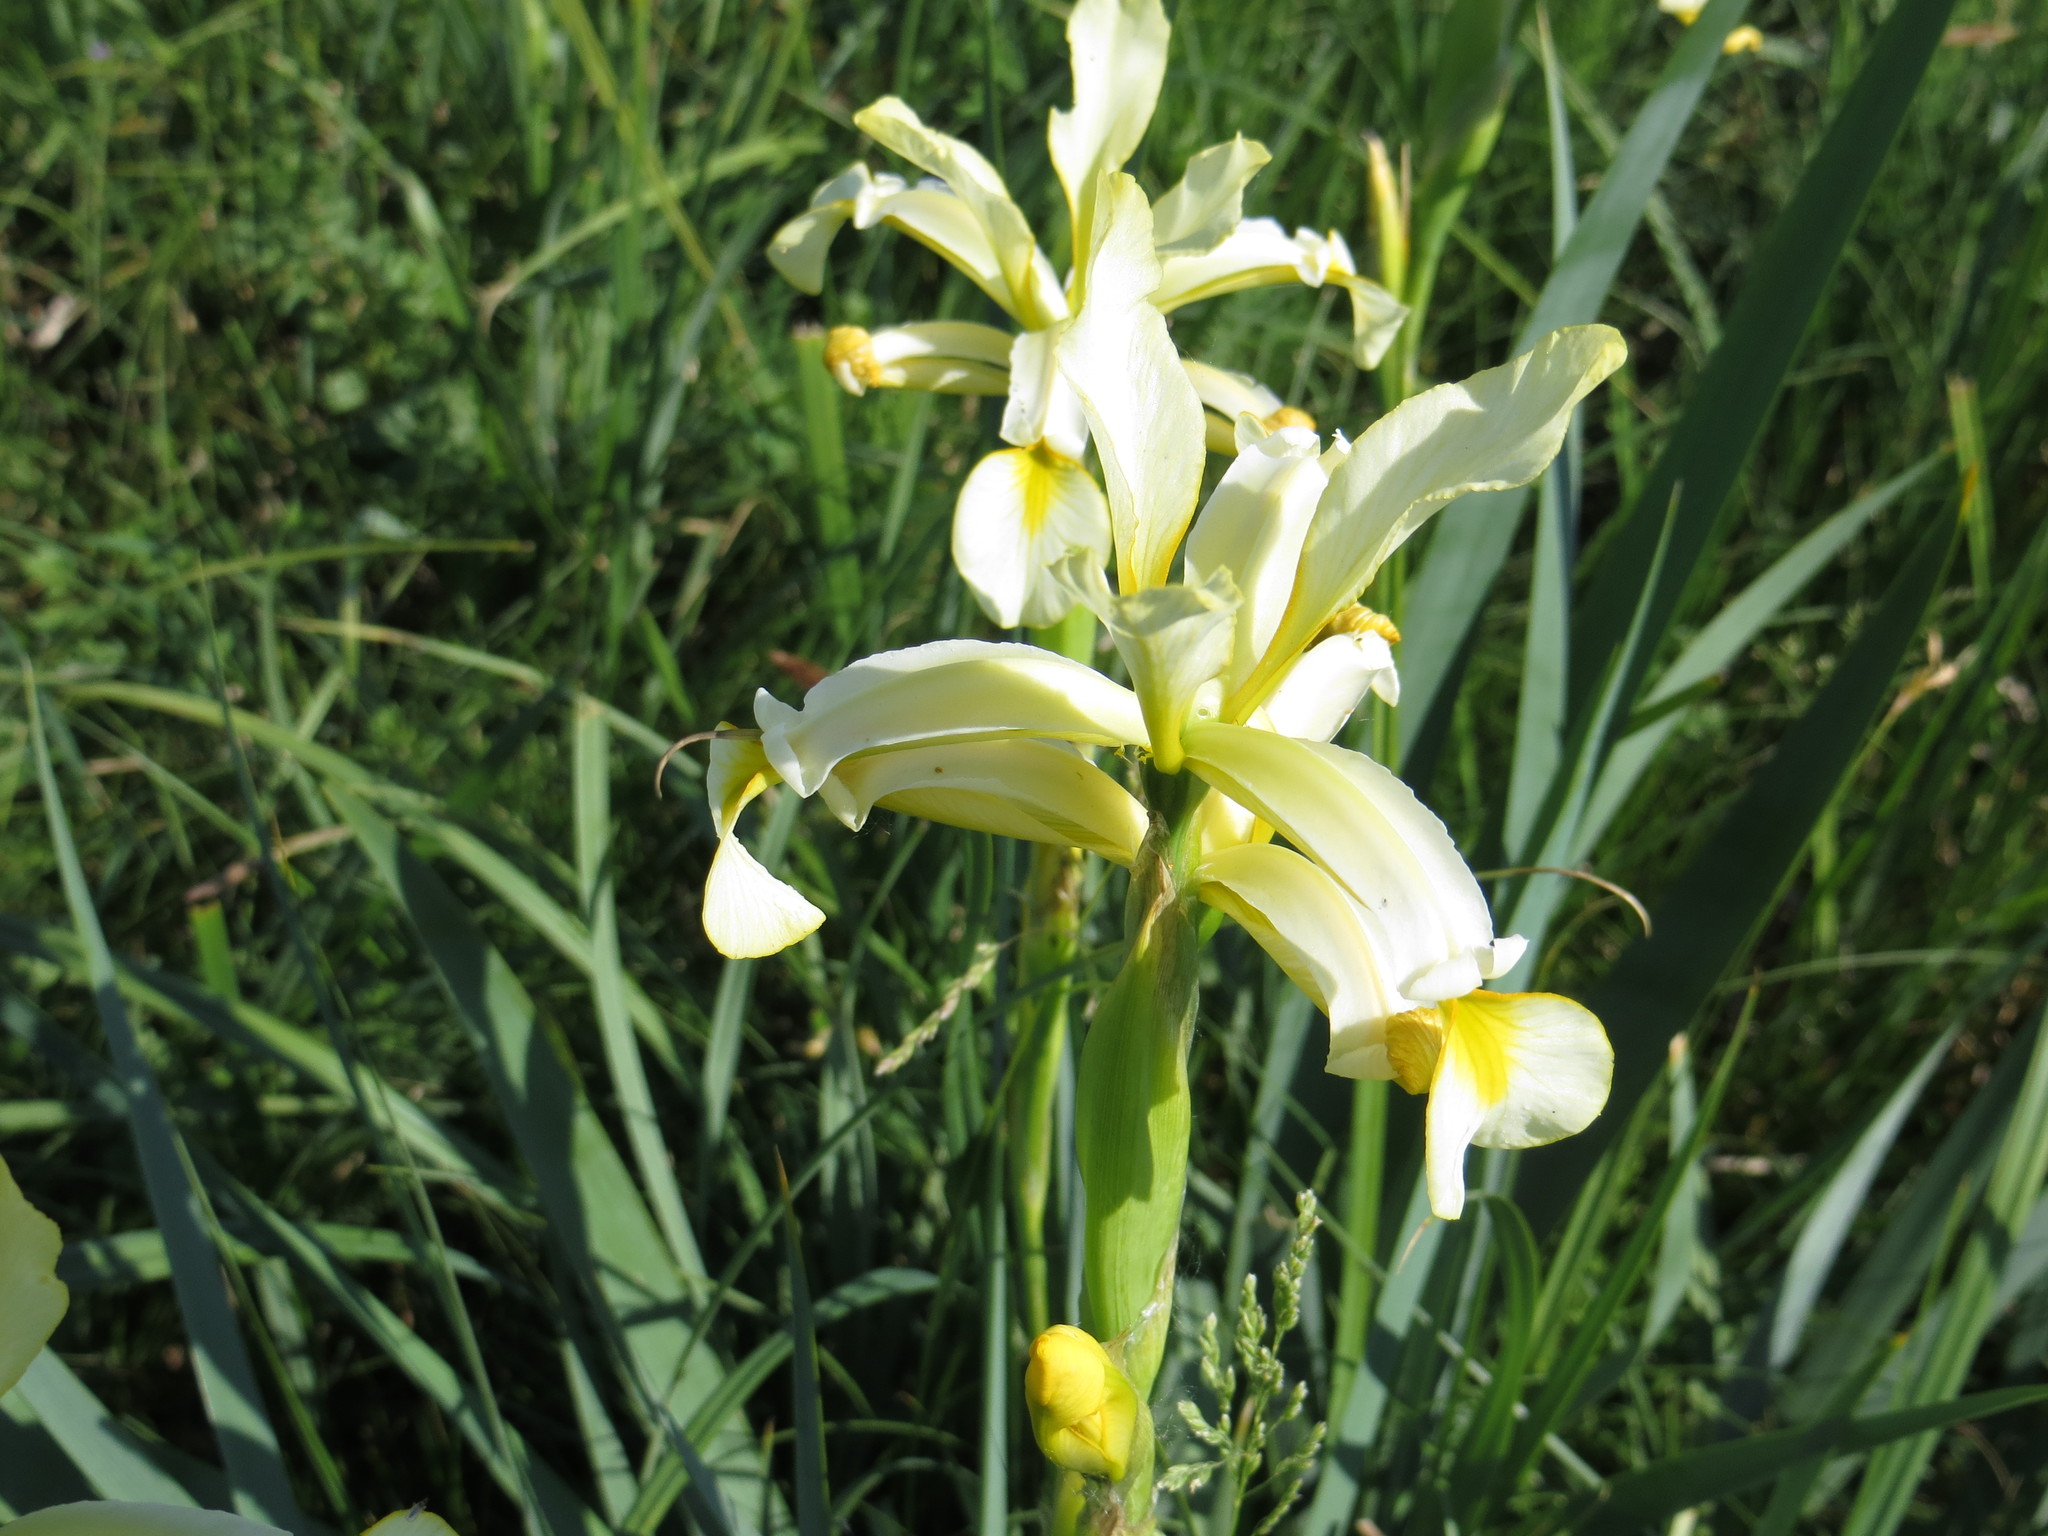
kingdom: Plantae
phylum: Tracheophyta
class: Liliopsida
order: Asparagales
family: Iridaceae
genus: Iris
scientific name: Iris halophila
